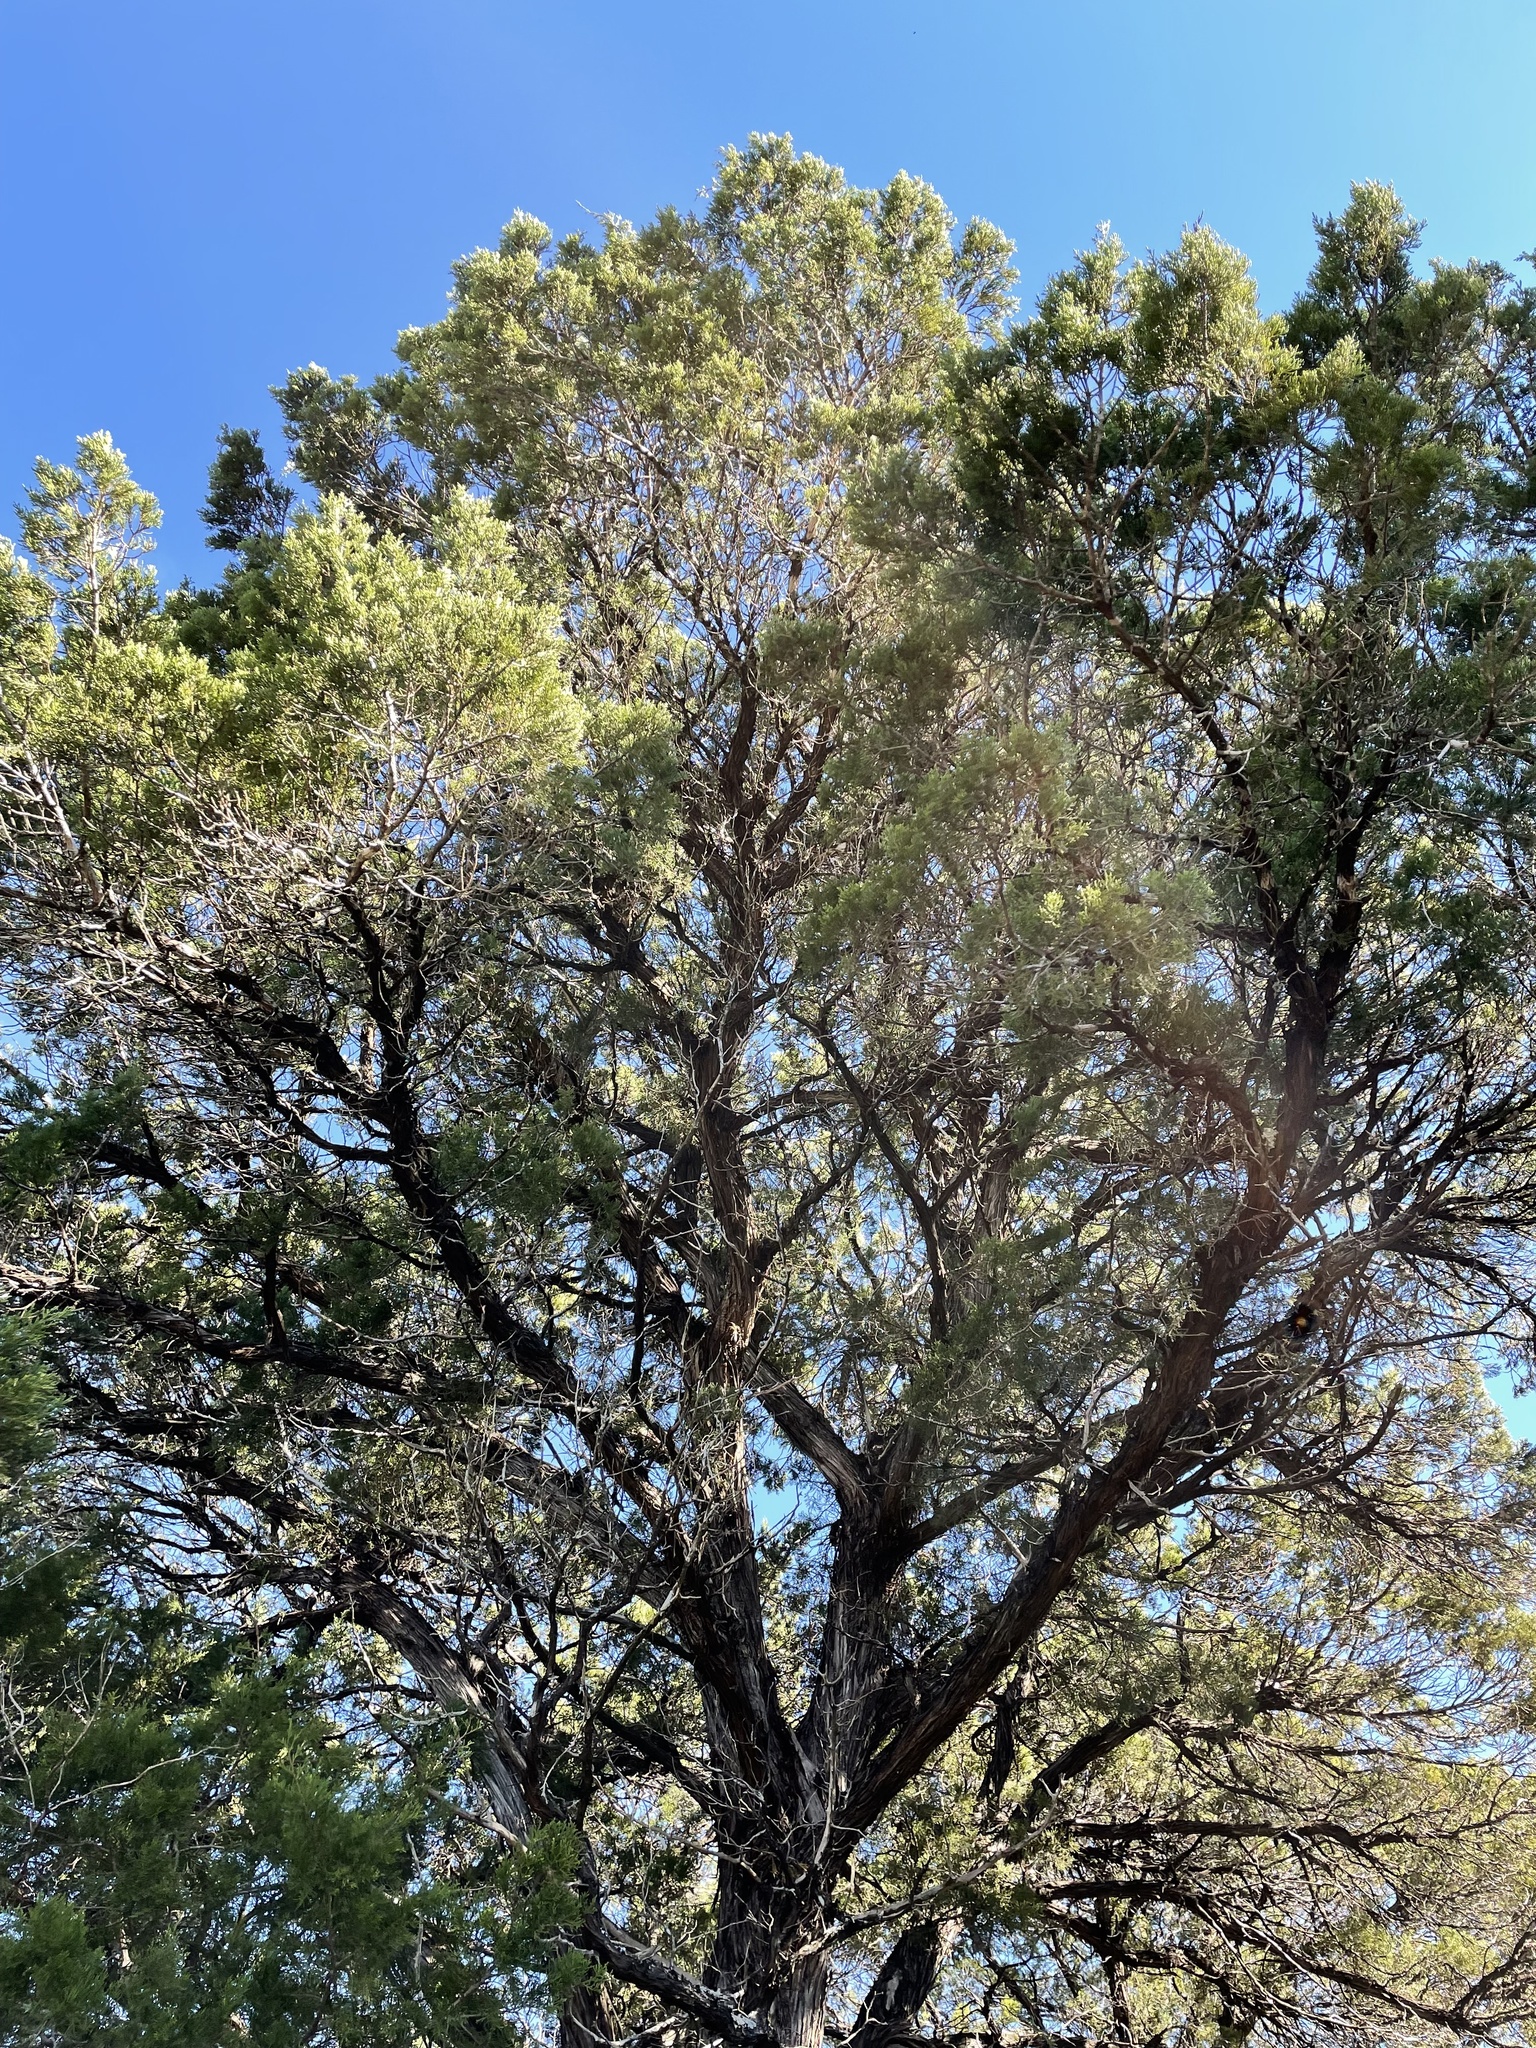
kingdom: Plantae
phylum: Tracheophyta
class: Pinopsida
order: Pinales
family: Cupressaceae
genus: Juniperus
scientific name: Juniperus ashei
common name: Mexican juniper
